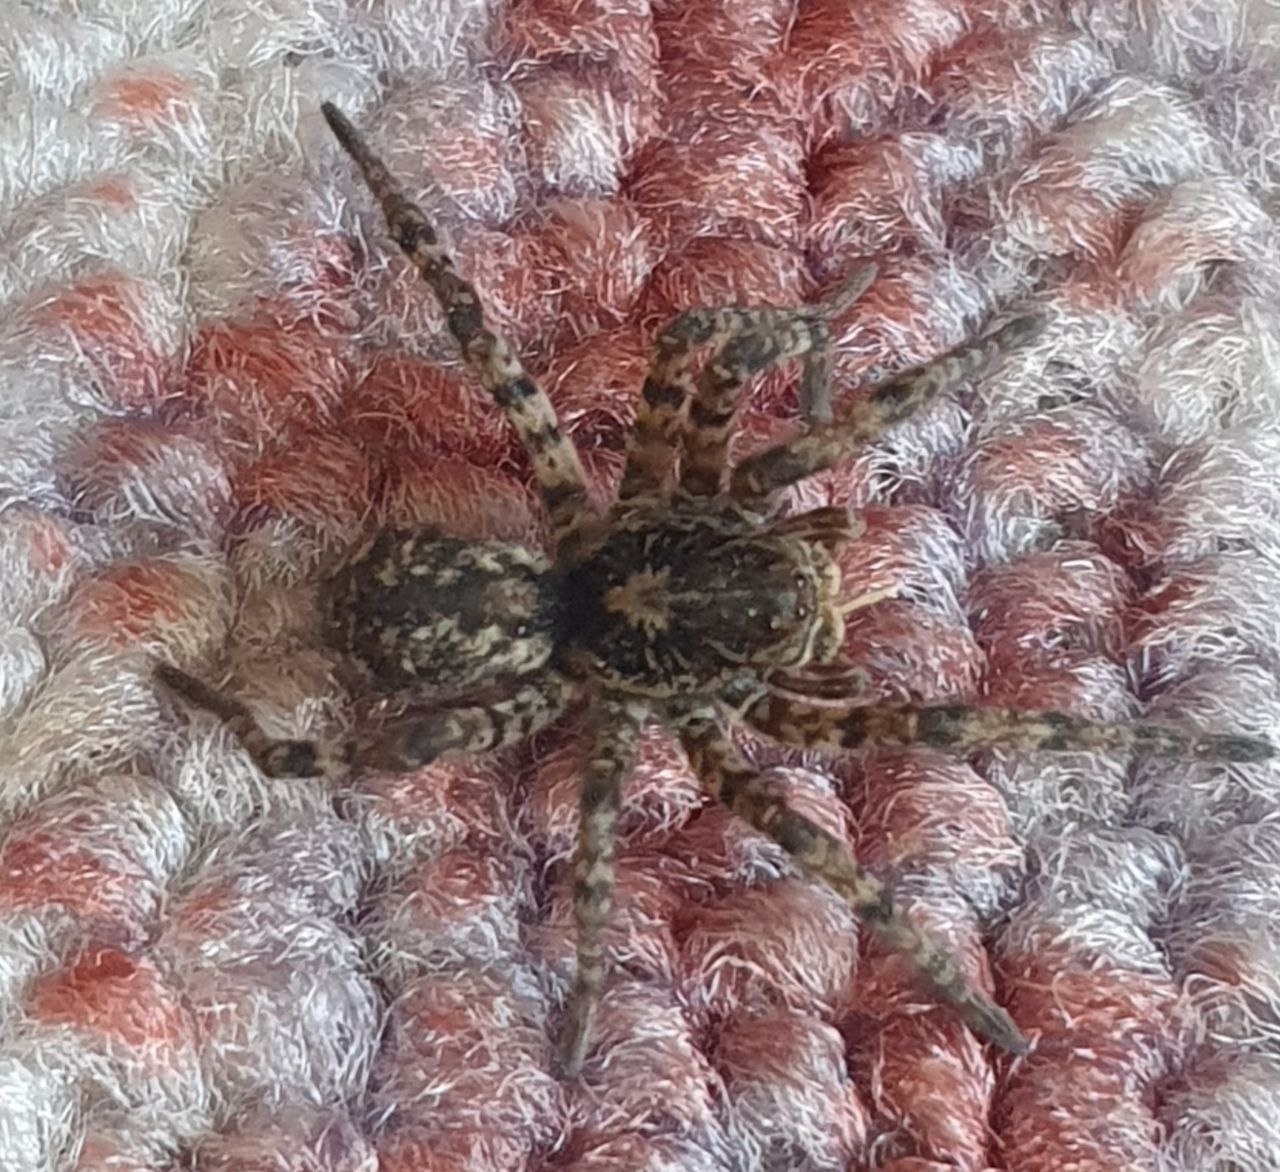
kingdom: Animalia
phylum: Arthropoda
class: Arachnida
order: Araneae
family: Lycosidae
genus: Lycosa
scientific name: Lycosa singoriensis
